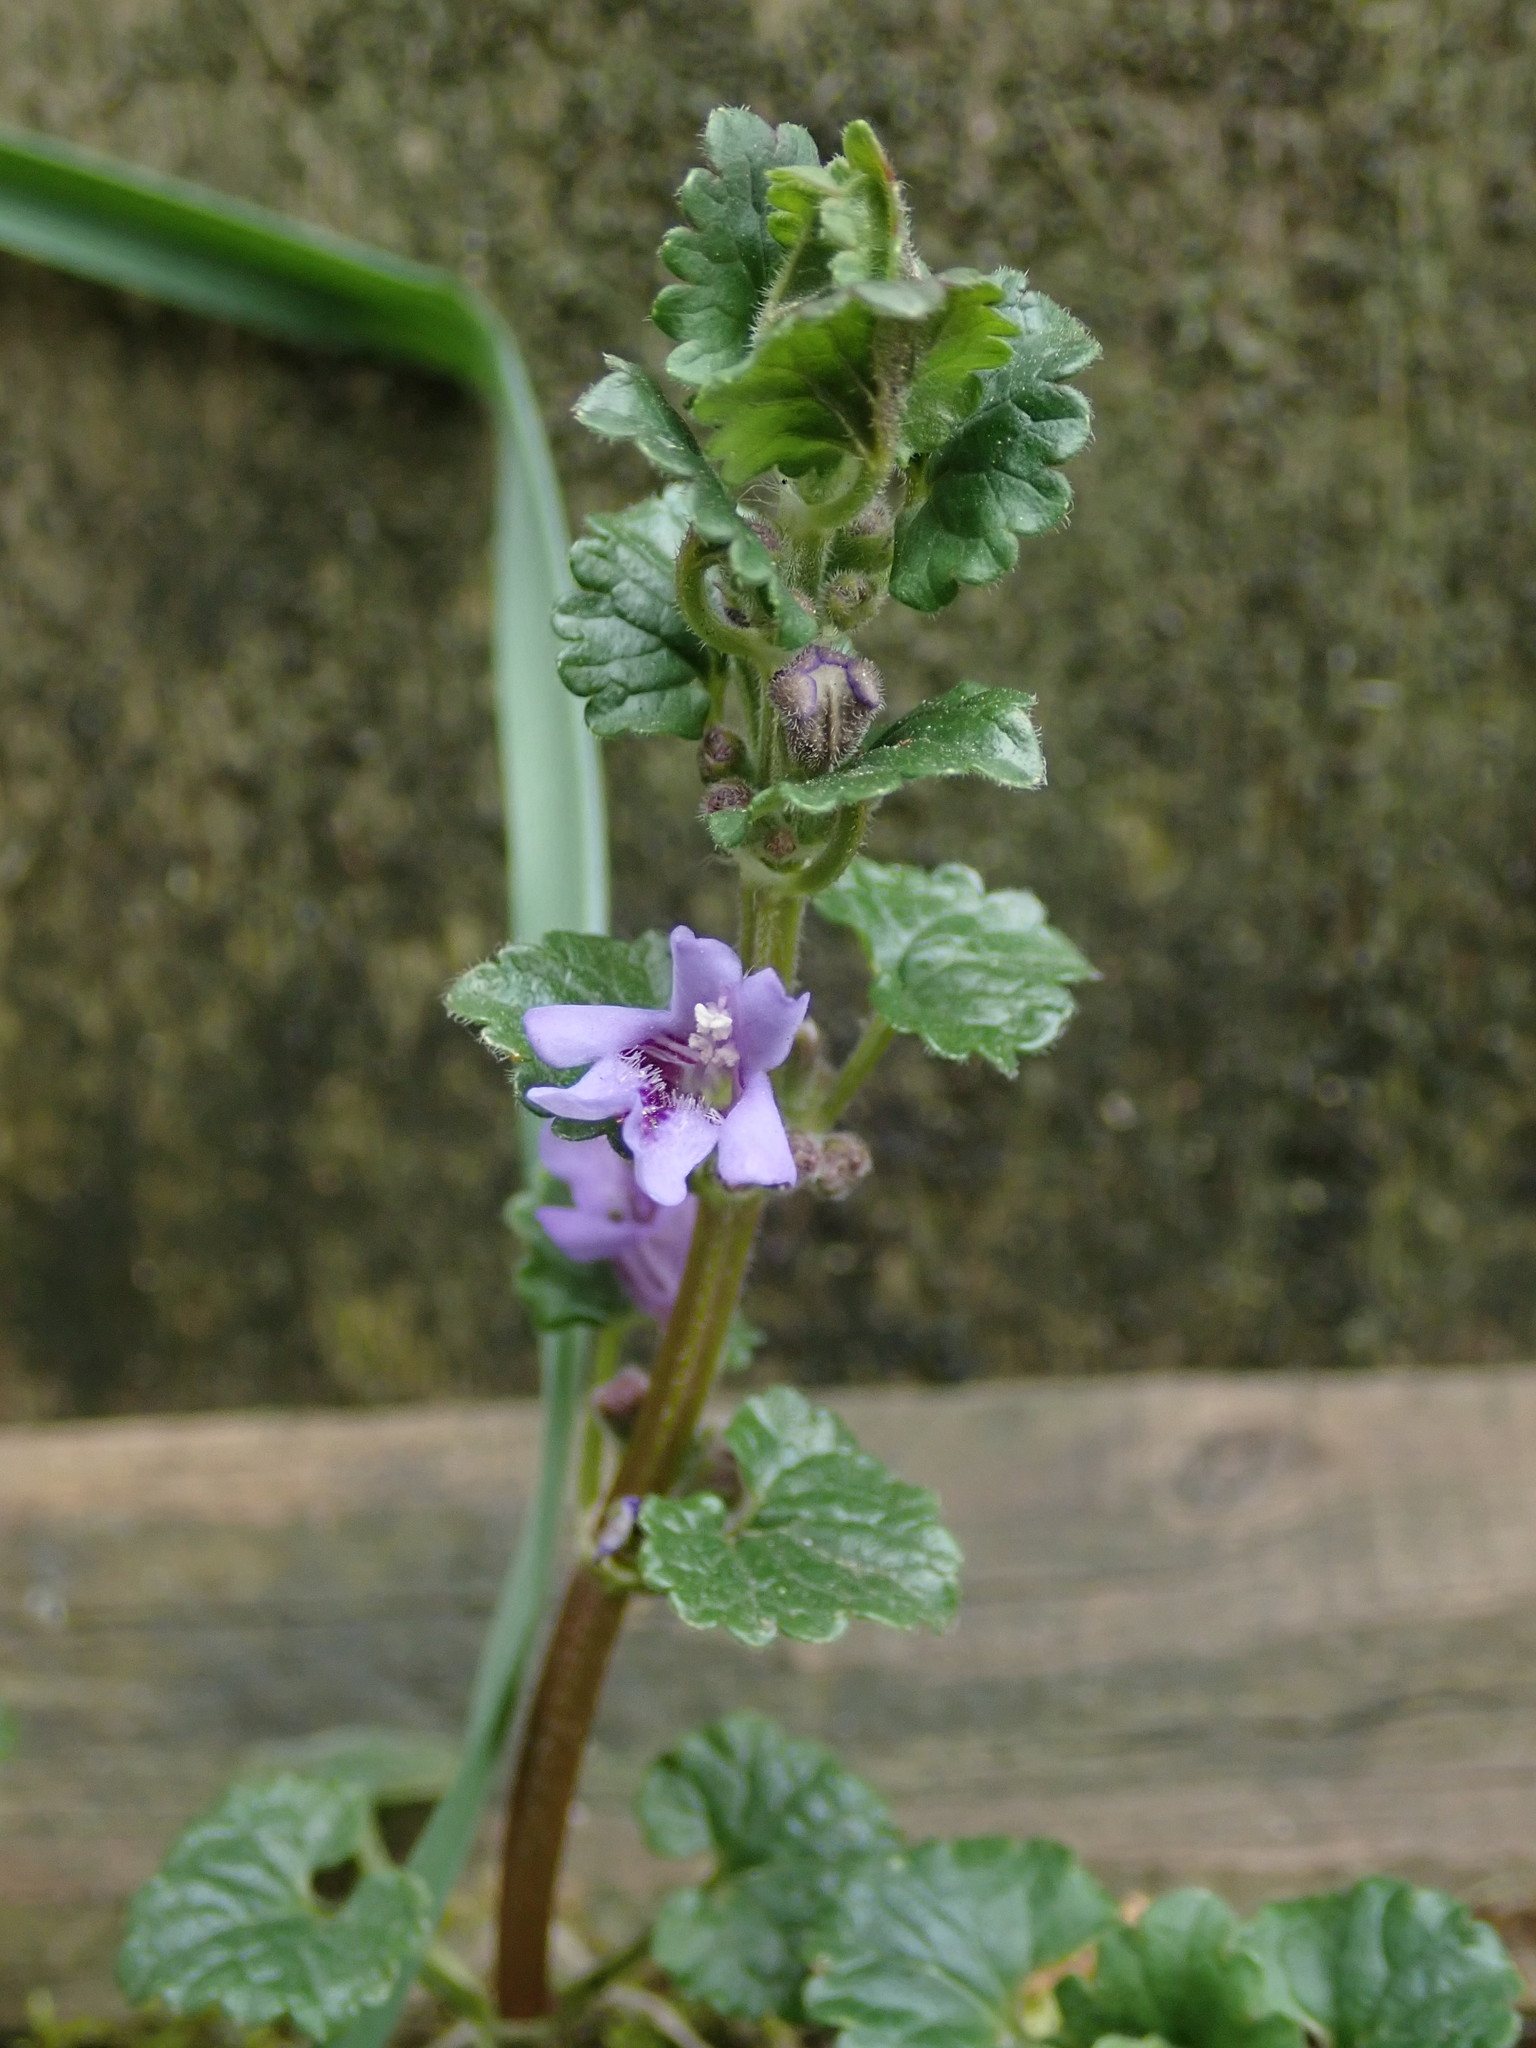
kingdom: Plantae
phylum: Tracheophyta
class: Magnoliopsida
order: Lamiales
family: Lamiaceae
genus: Glechoma
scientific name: Glechoma hederacea
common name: Ground ivy
